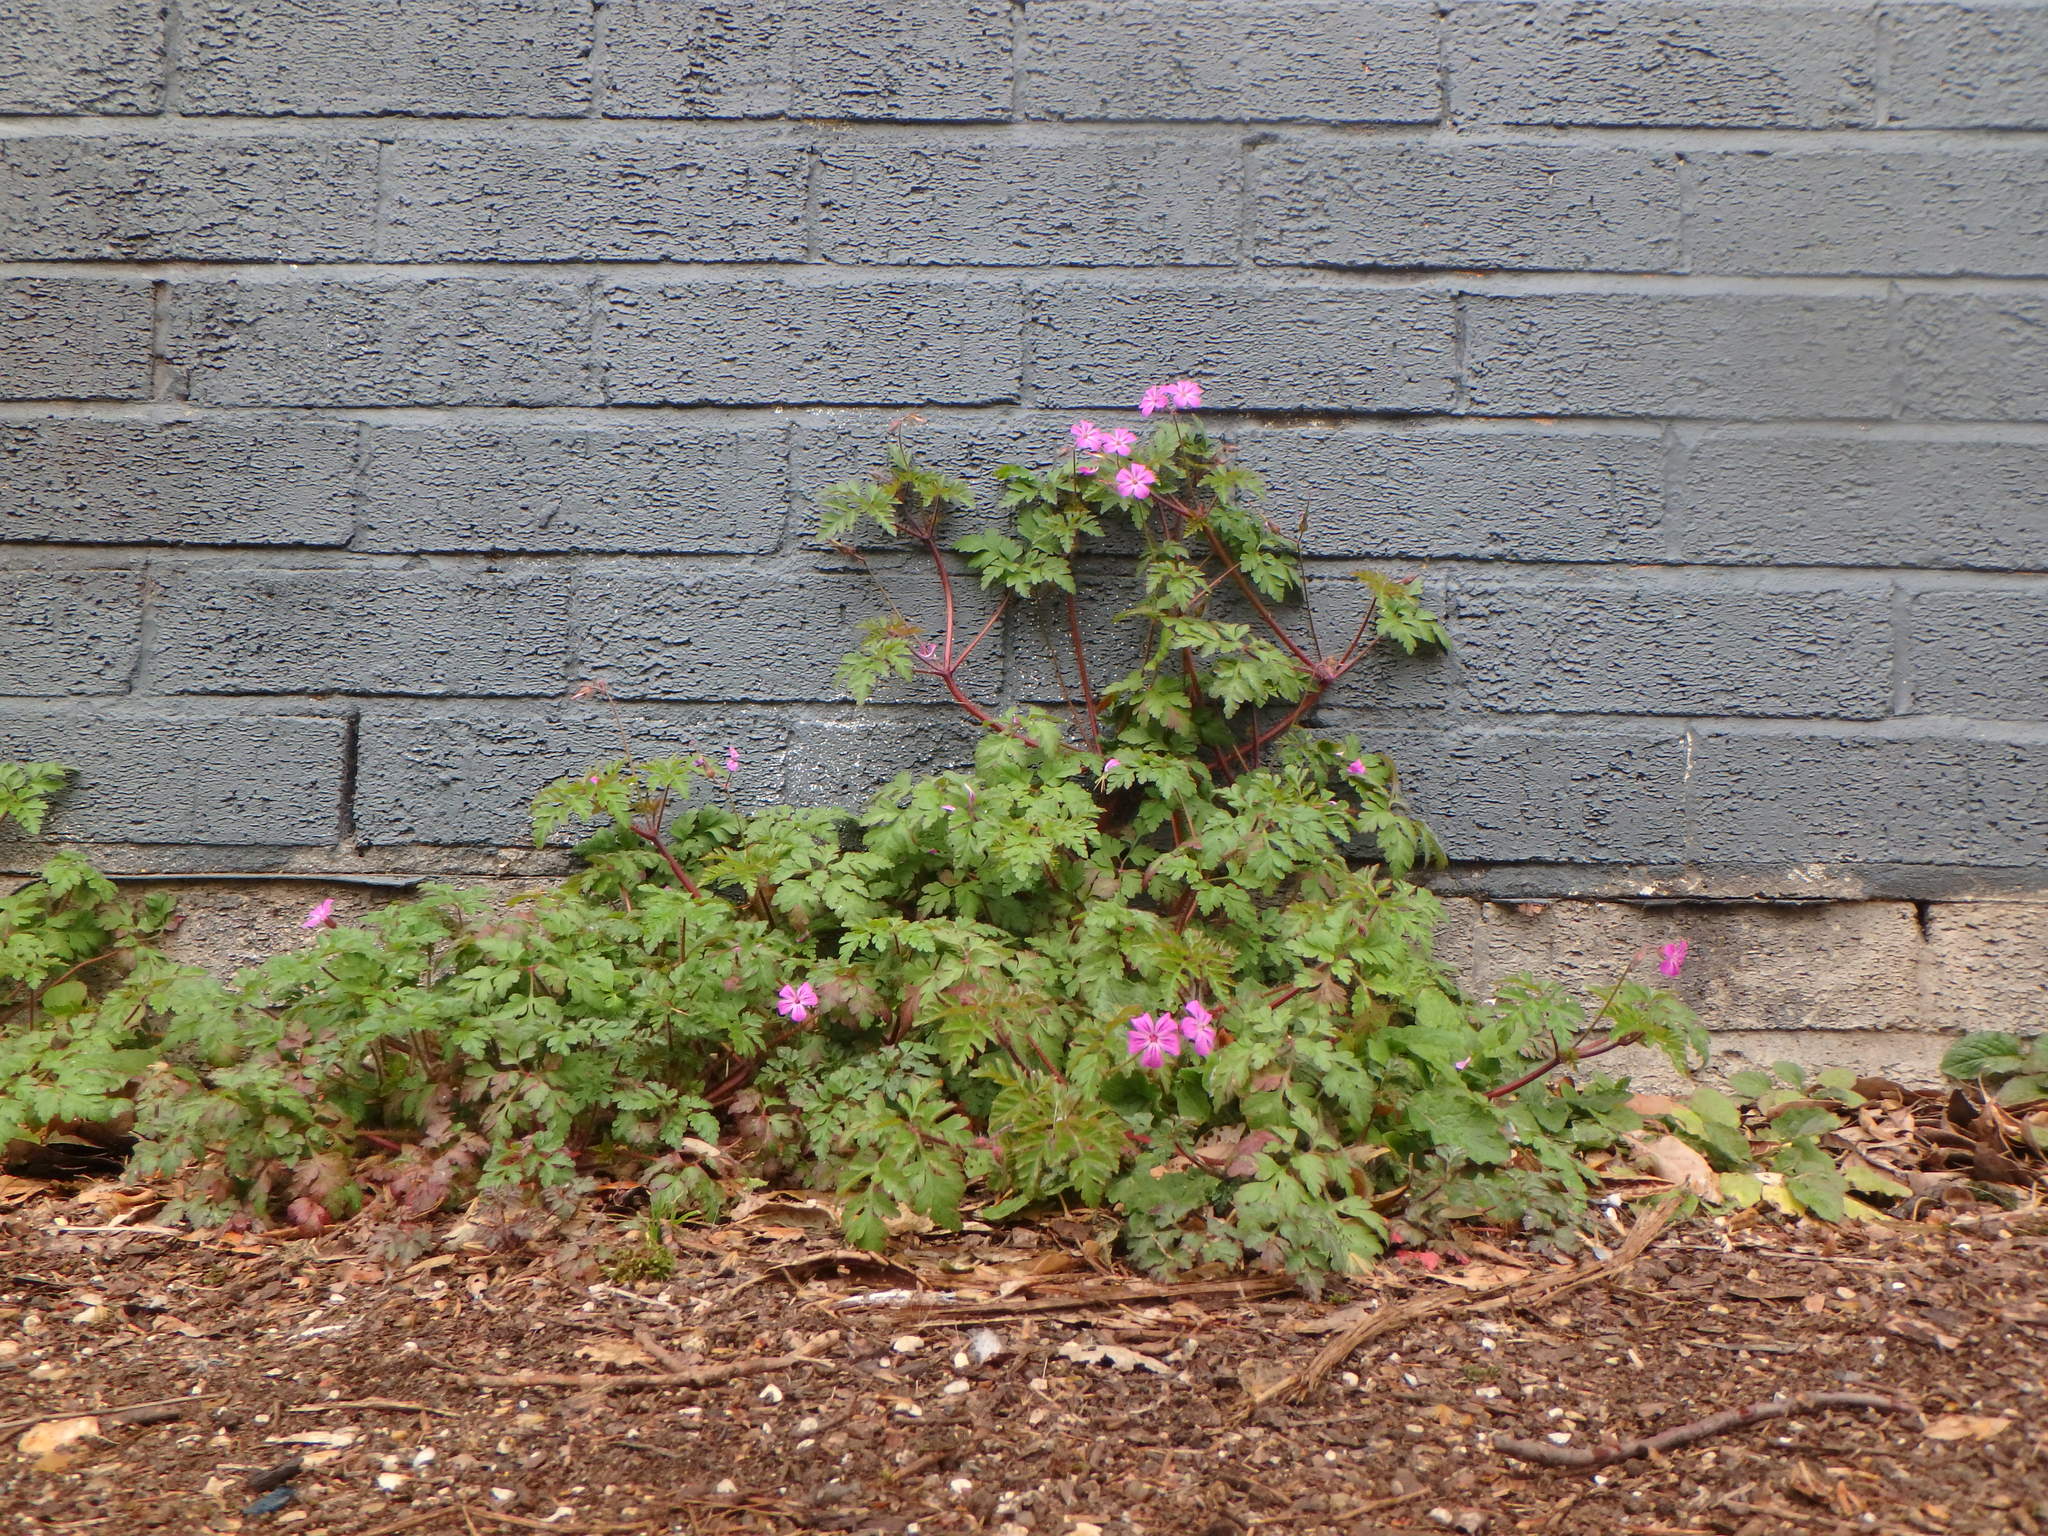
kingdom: Plantae
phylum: Tracheophyta
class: Magnoliopsida
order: Geraniales
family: Geraniaceae
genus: Geranium
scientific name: Geranium robertianum
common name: Herb-robert
